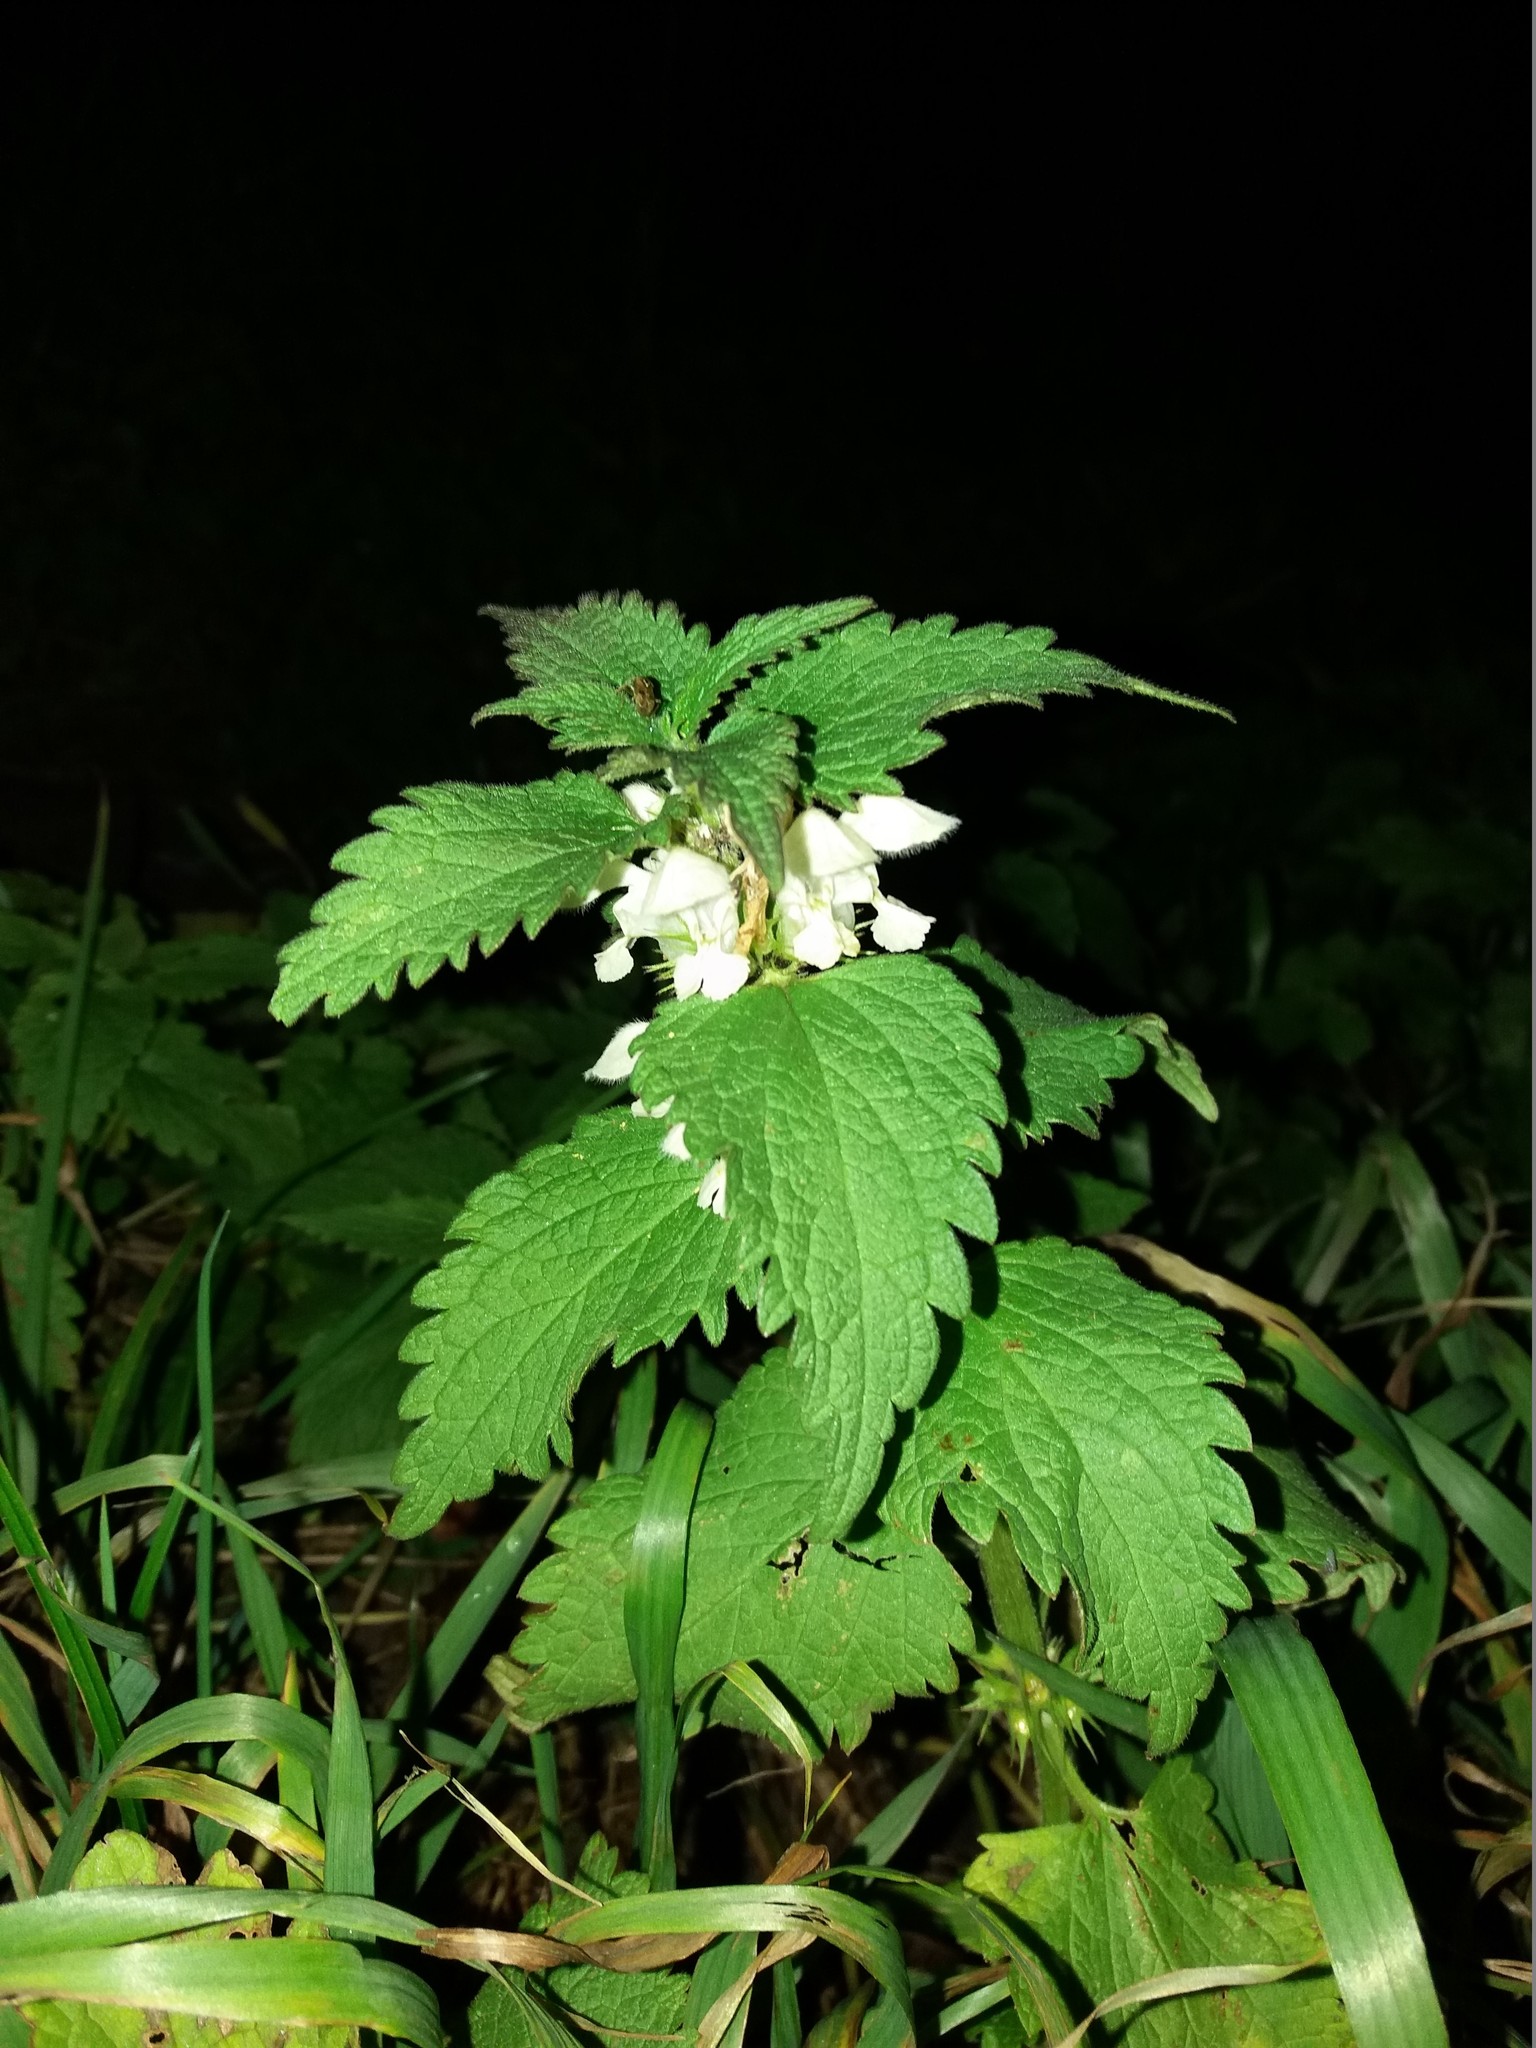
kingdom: Plantae
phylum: Tracheophyta
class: Magnoliopsida
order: Lamiales
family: Lamiaceae
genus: Lamium
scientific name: Lamium album
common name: White dead-nettle
